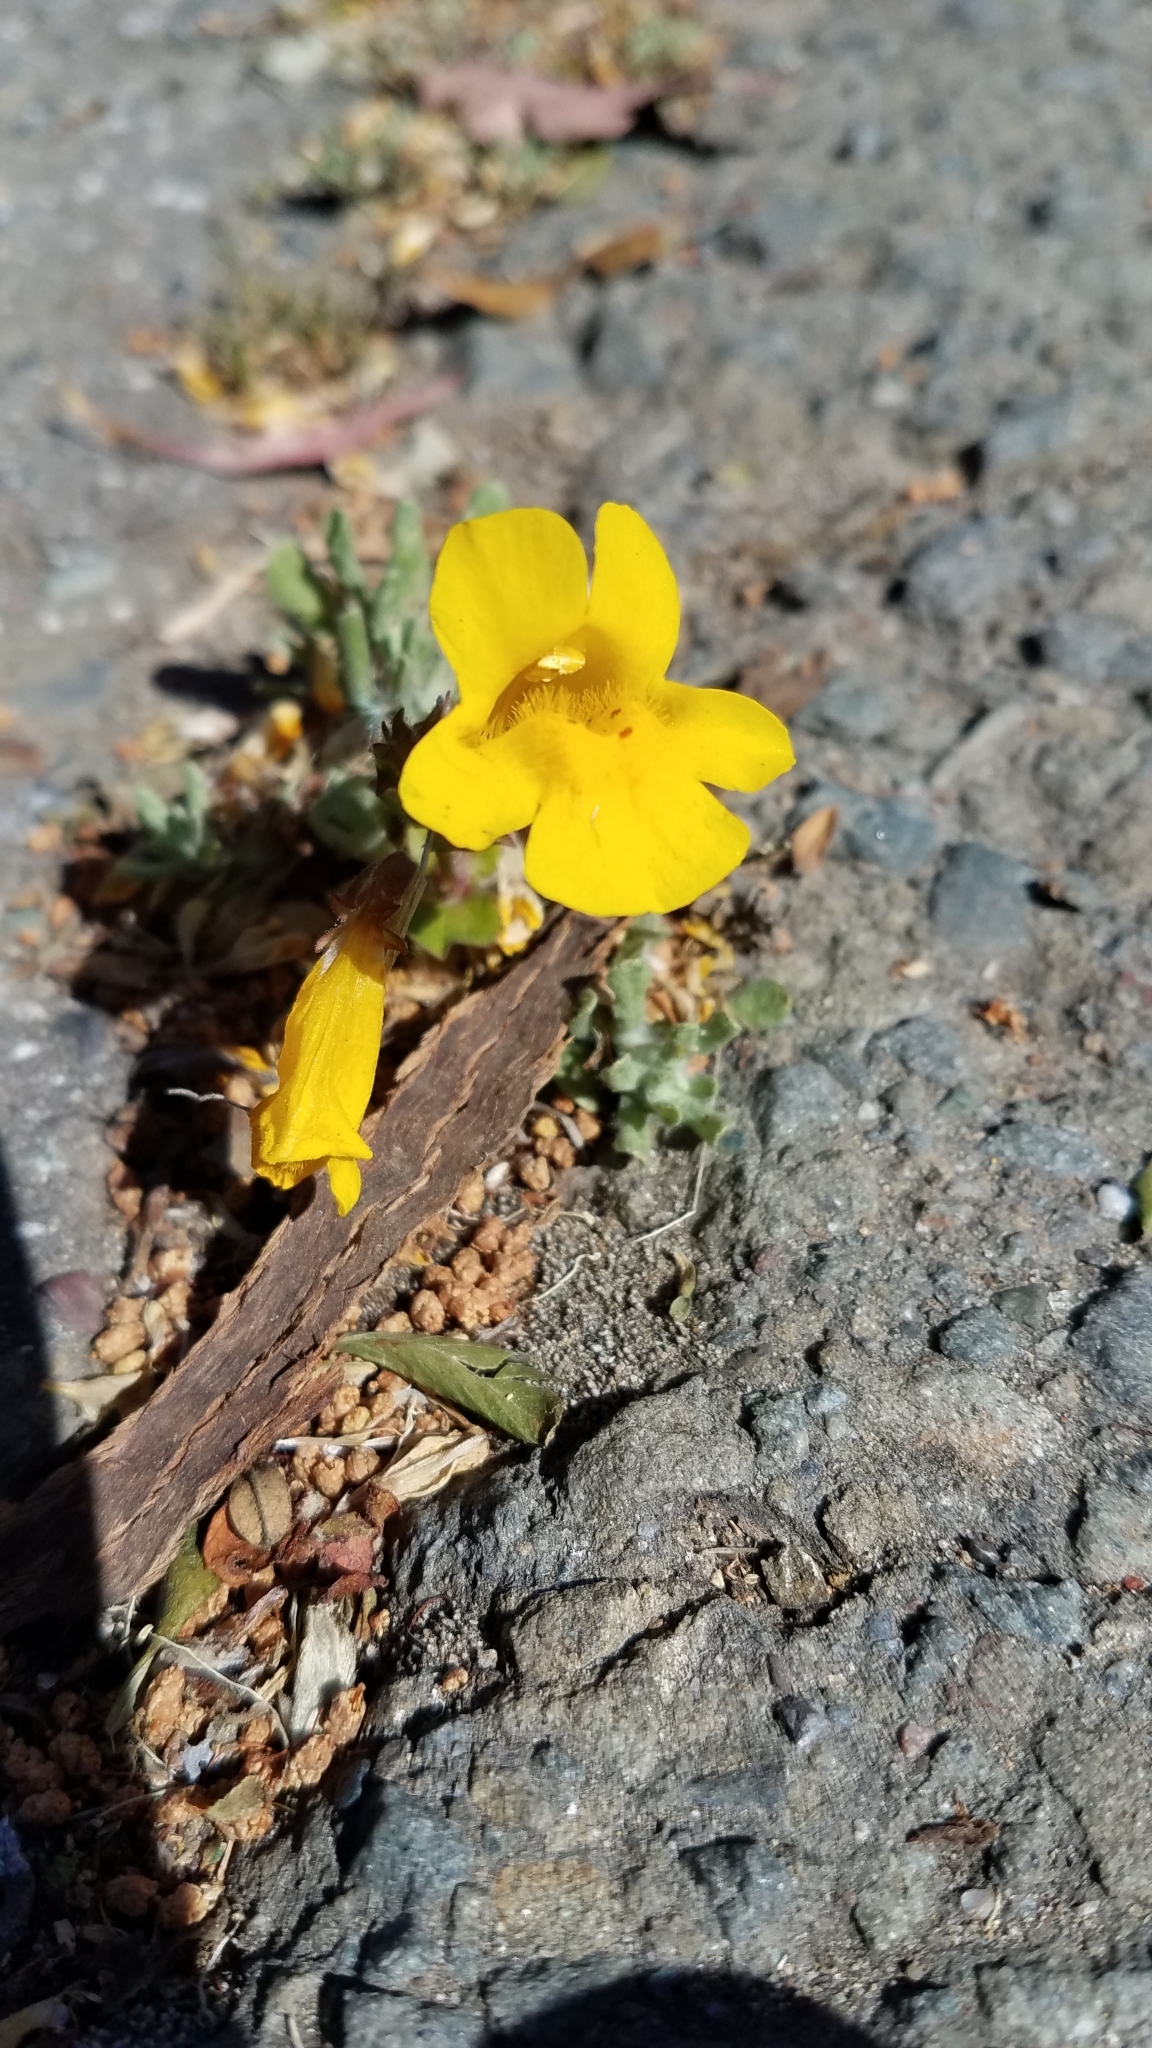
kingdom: Plantae
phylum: Tracheophyta
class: Magnoliopsida
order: Lamiales
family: Phrymaceae
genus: Erythranthe
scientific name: Erythranthe guttata
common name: Monkeyflower
